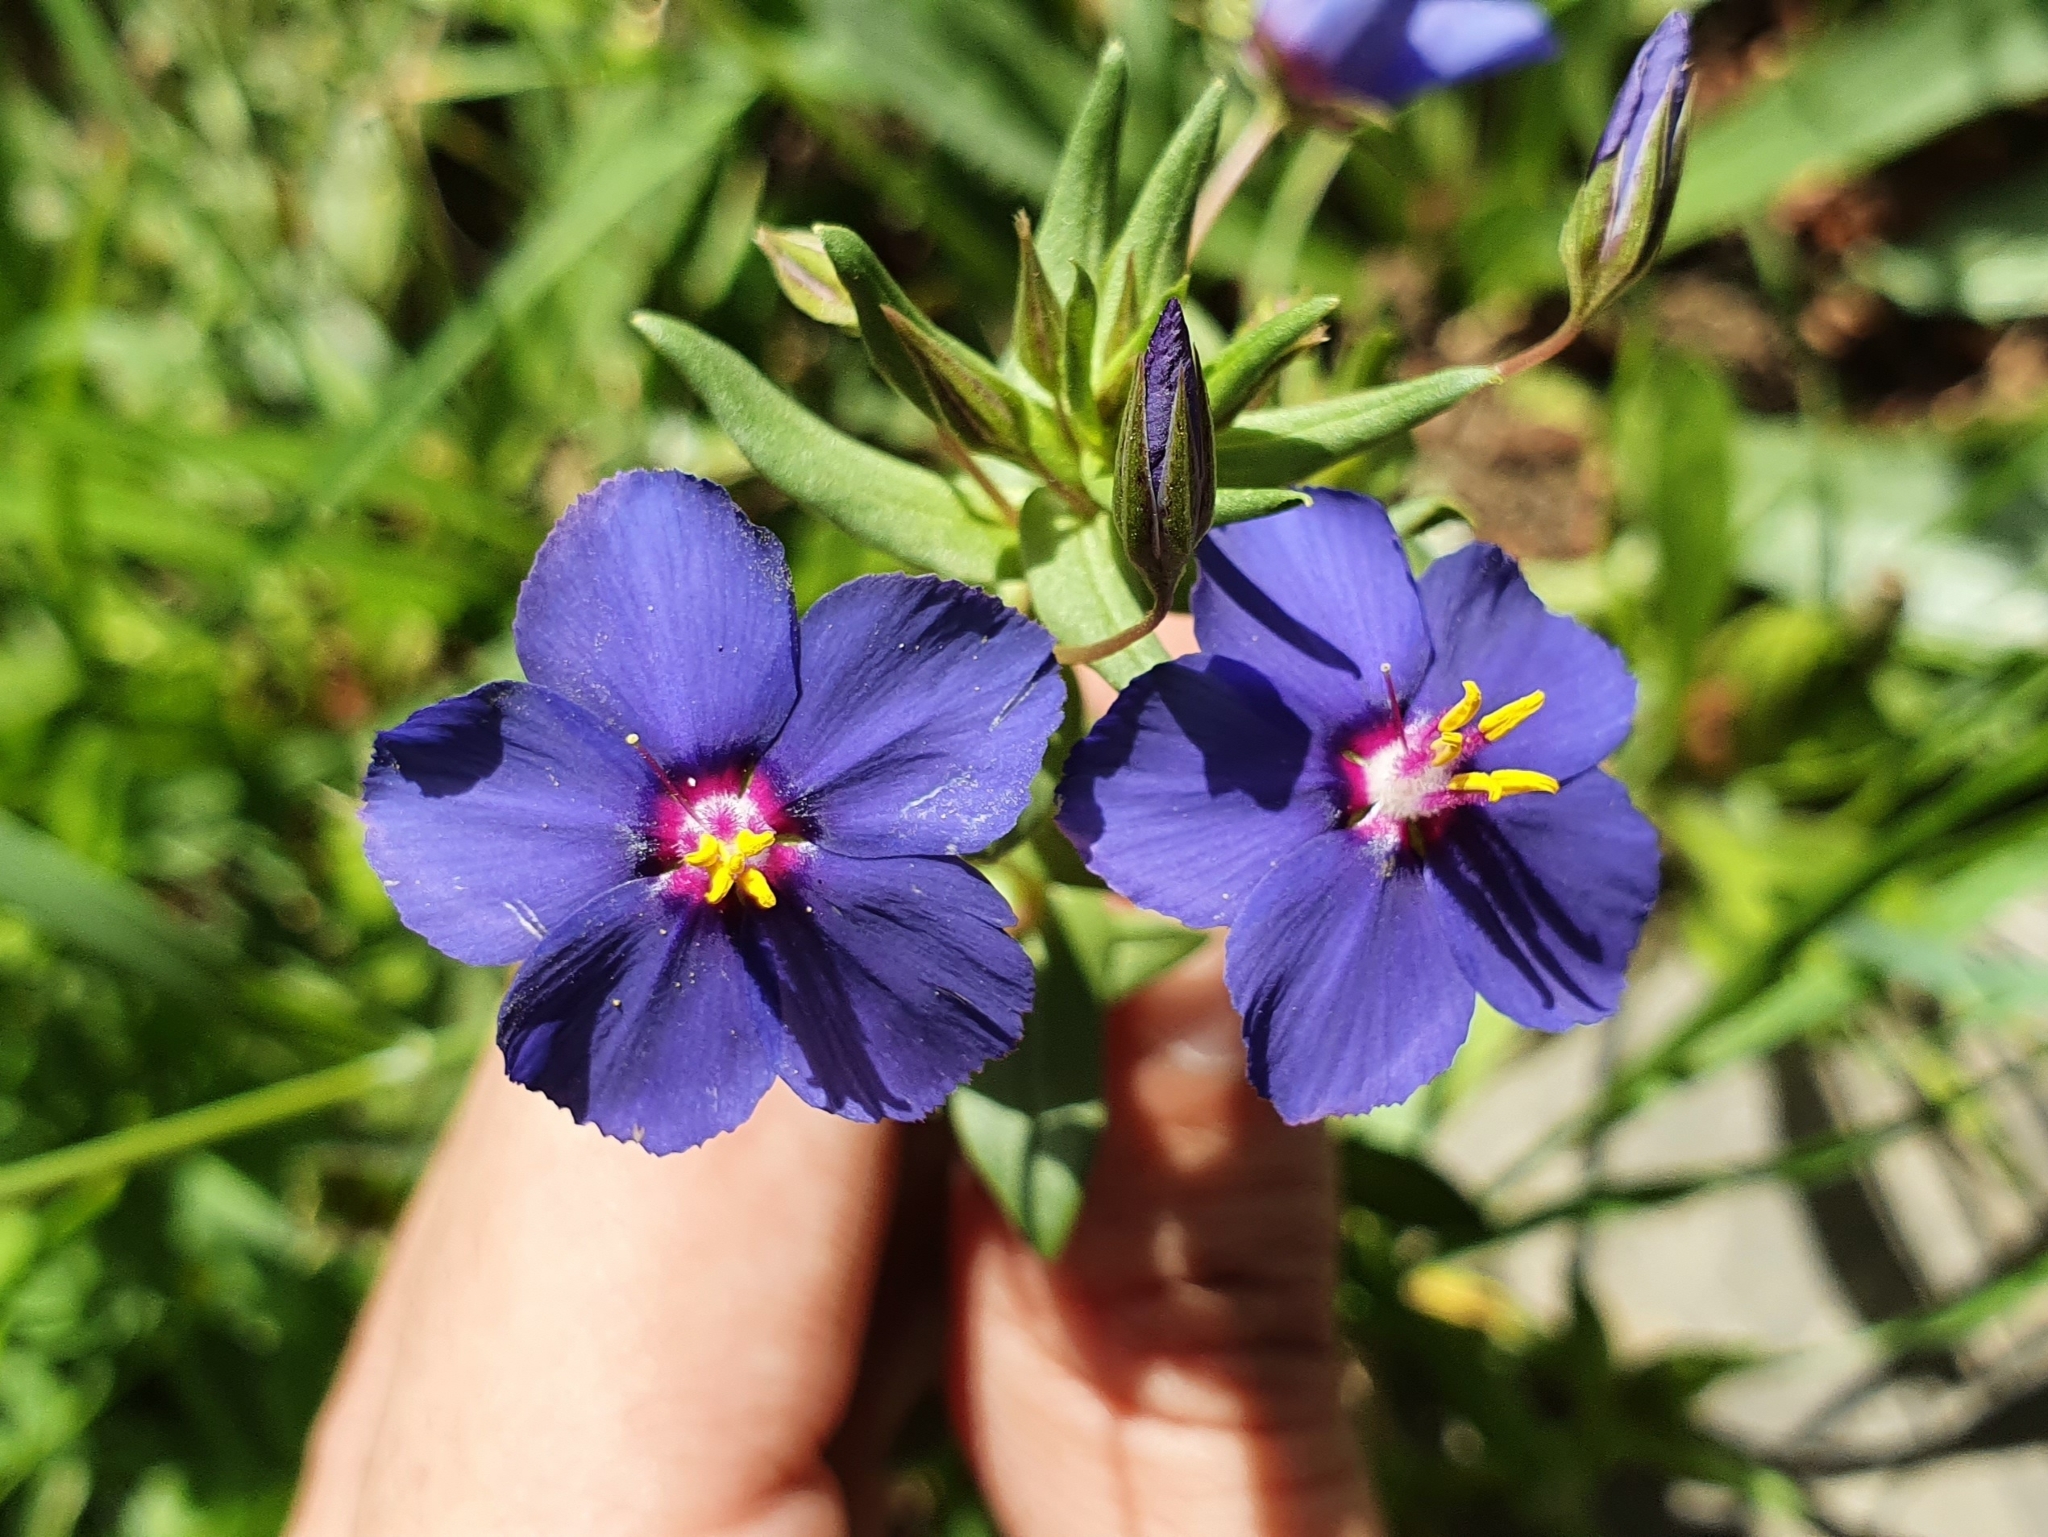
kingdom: Plantae
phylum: Tracheophyta
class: Magnoliopsida
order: Ericales
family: Primulaceae
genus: Lysimachia
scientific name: Lysimachia monelli
